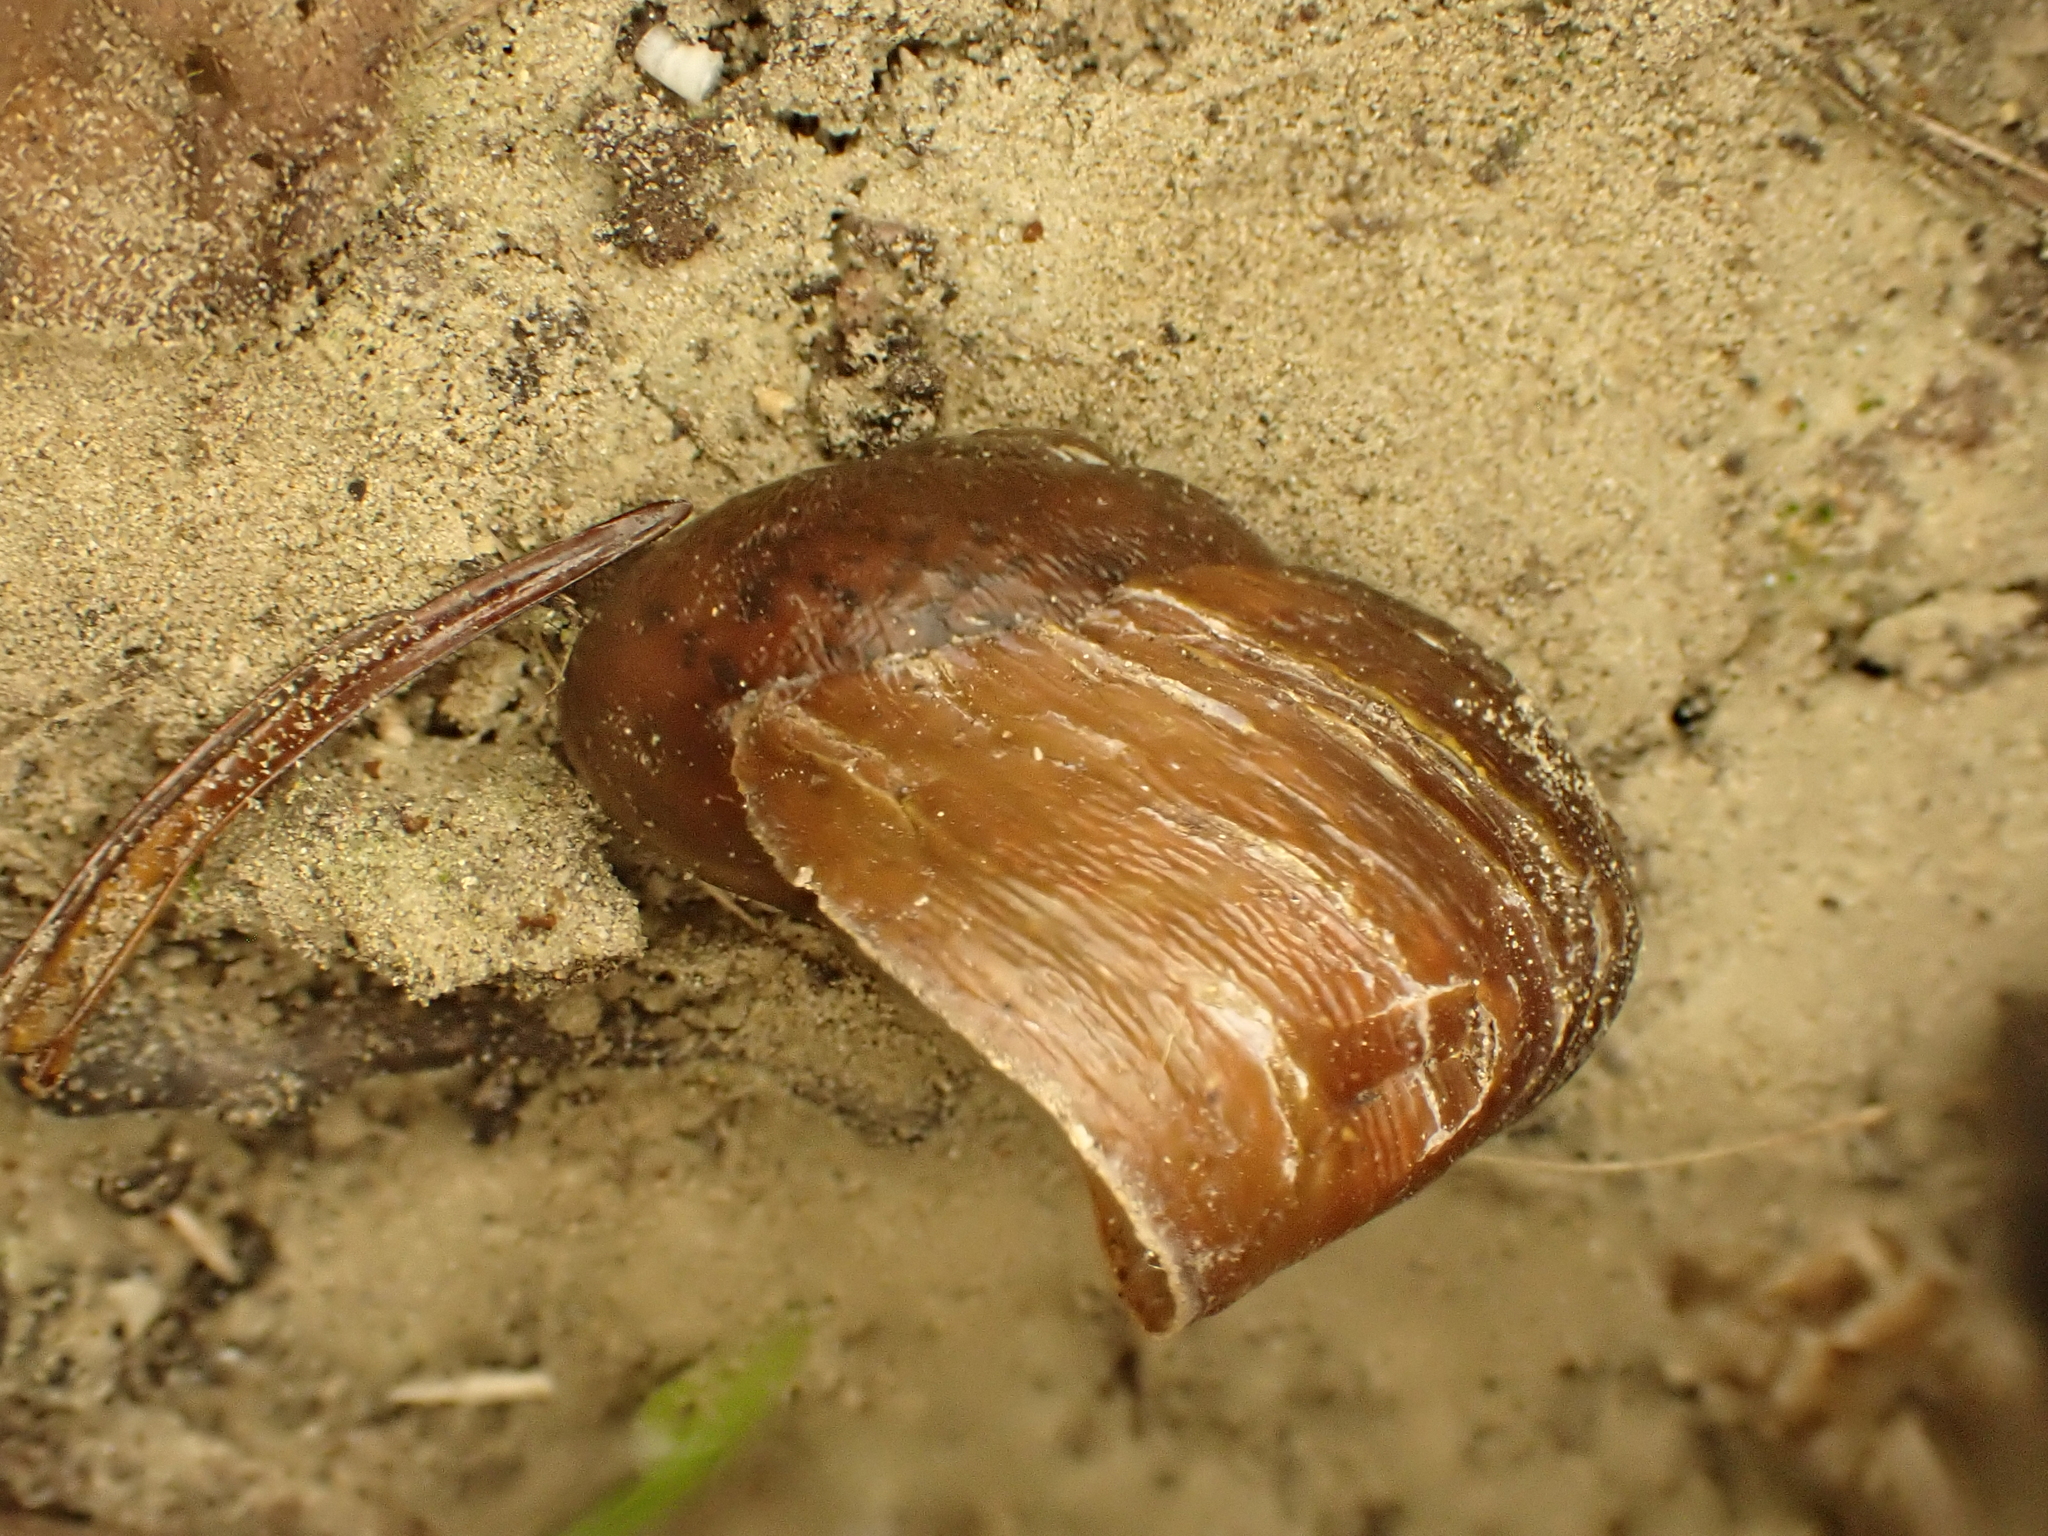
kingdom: Animalia
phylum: Mollusca
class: Gastropoda
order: Stylommatophora
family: Rhytididae
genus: Rhytida
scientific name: Rhytida greenwoodi
